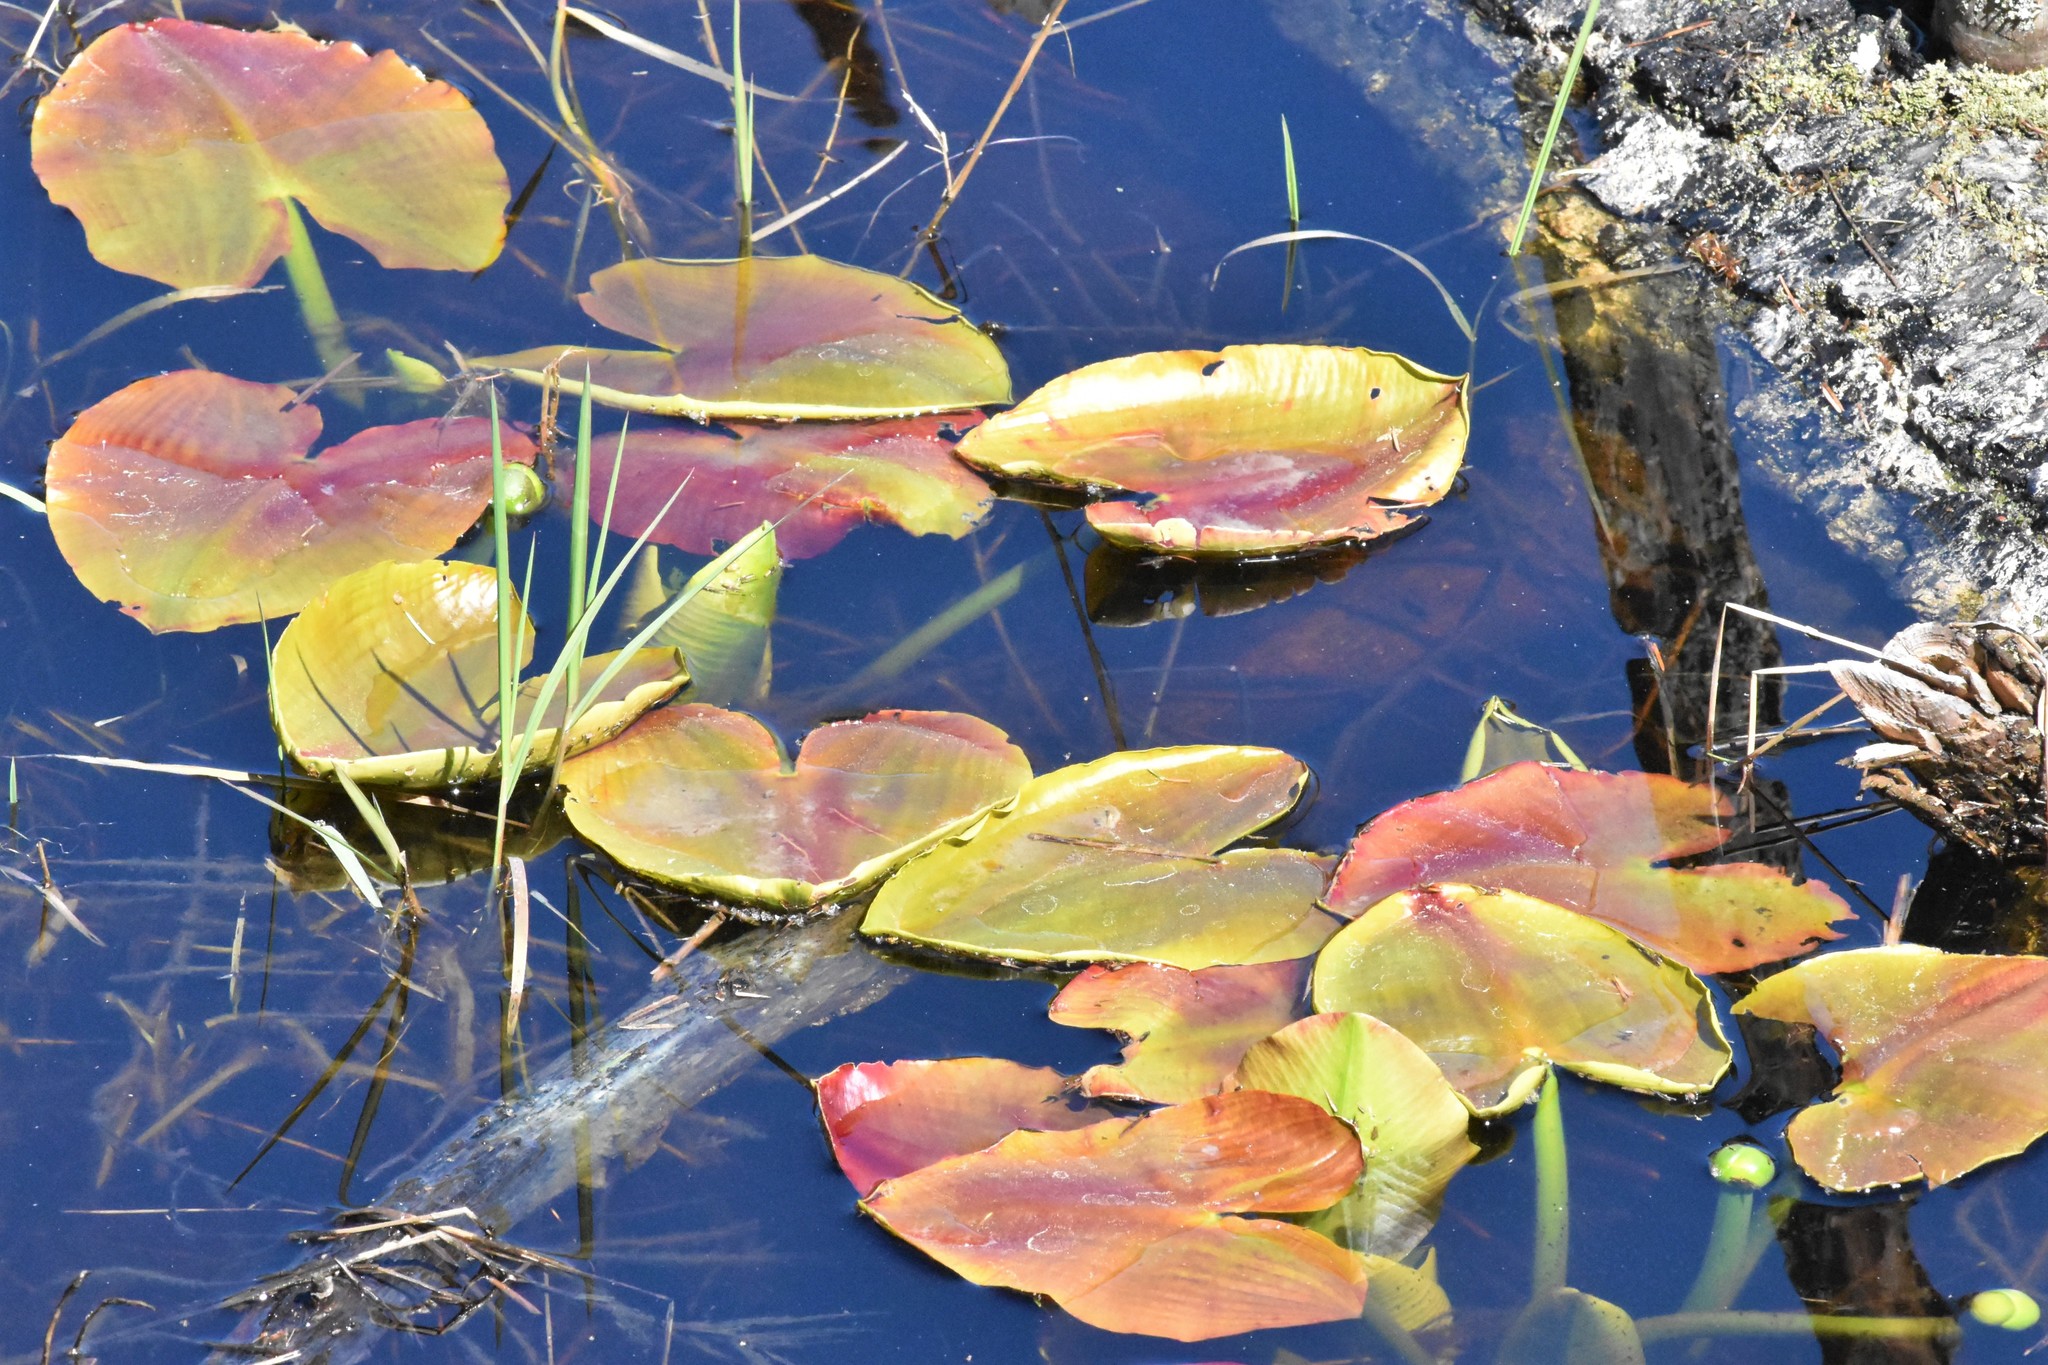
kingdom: Plantae
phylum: Tracheophyta
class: Magnoliopsida
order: Nymphaeales
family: Nymphaeaceae
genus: Nuphar
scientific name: Nuphar polysepala
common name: Rocky mountain cow-lily
